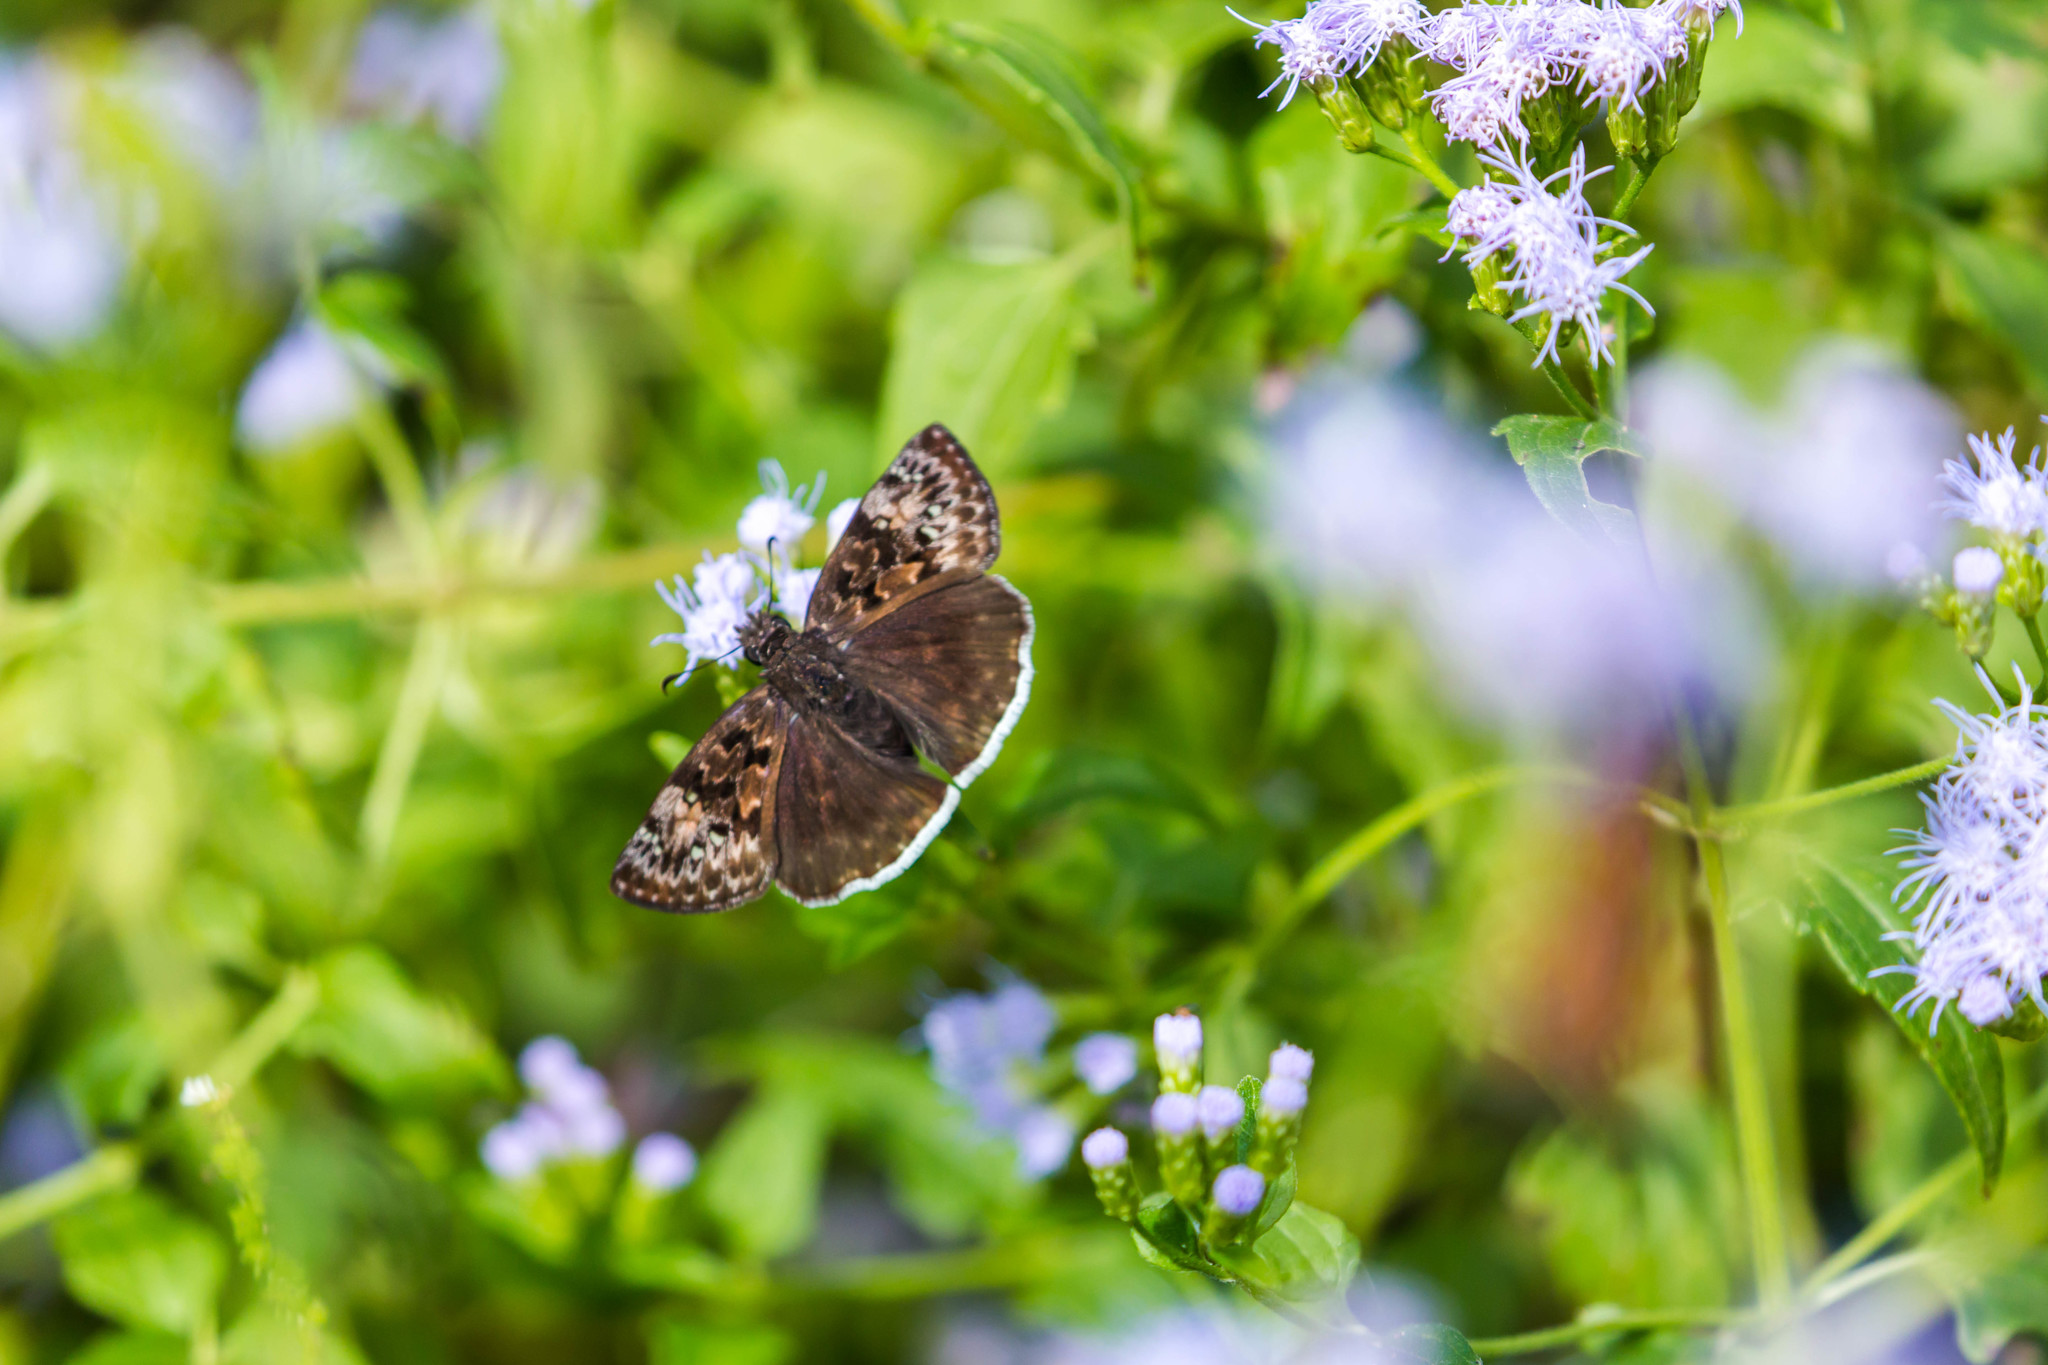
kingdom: Animalia
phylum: Arthropoda
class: Insecta
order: Lepidoptera
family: Hesperiidae
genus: Erynnis
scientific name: Erynnis tristis
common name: Mournful duskywing
